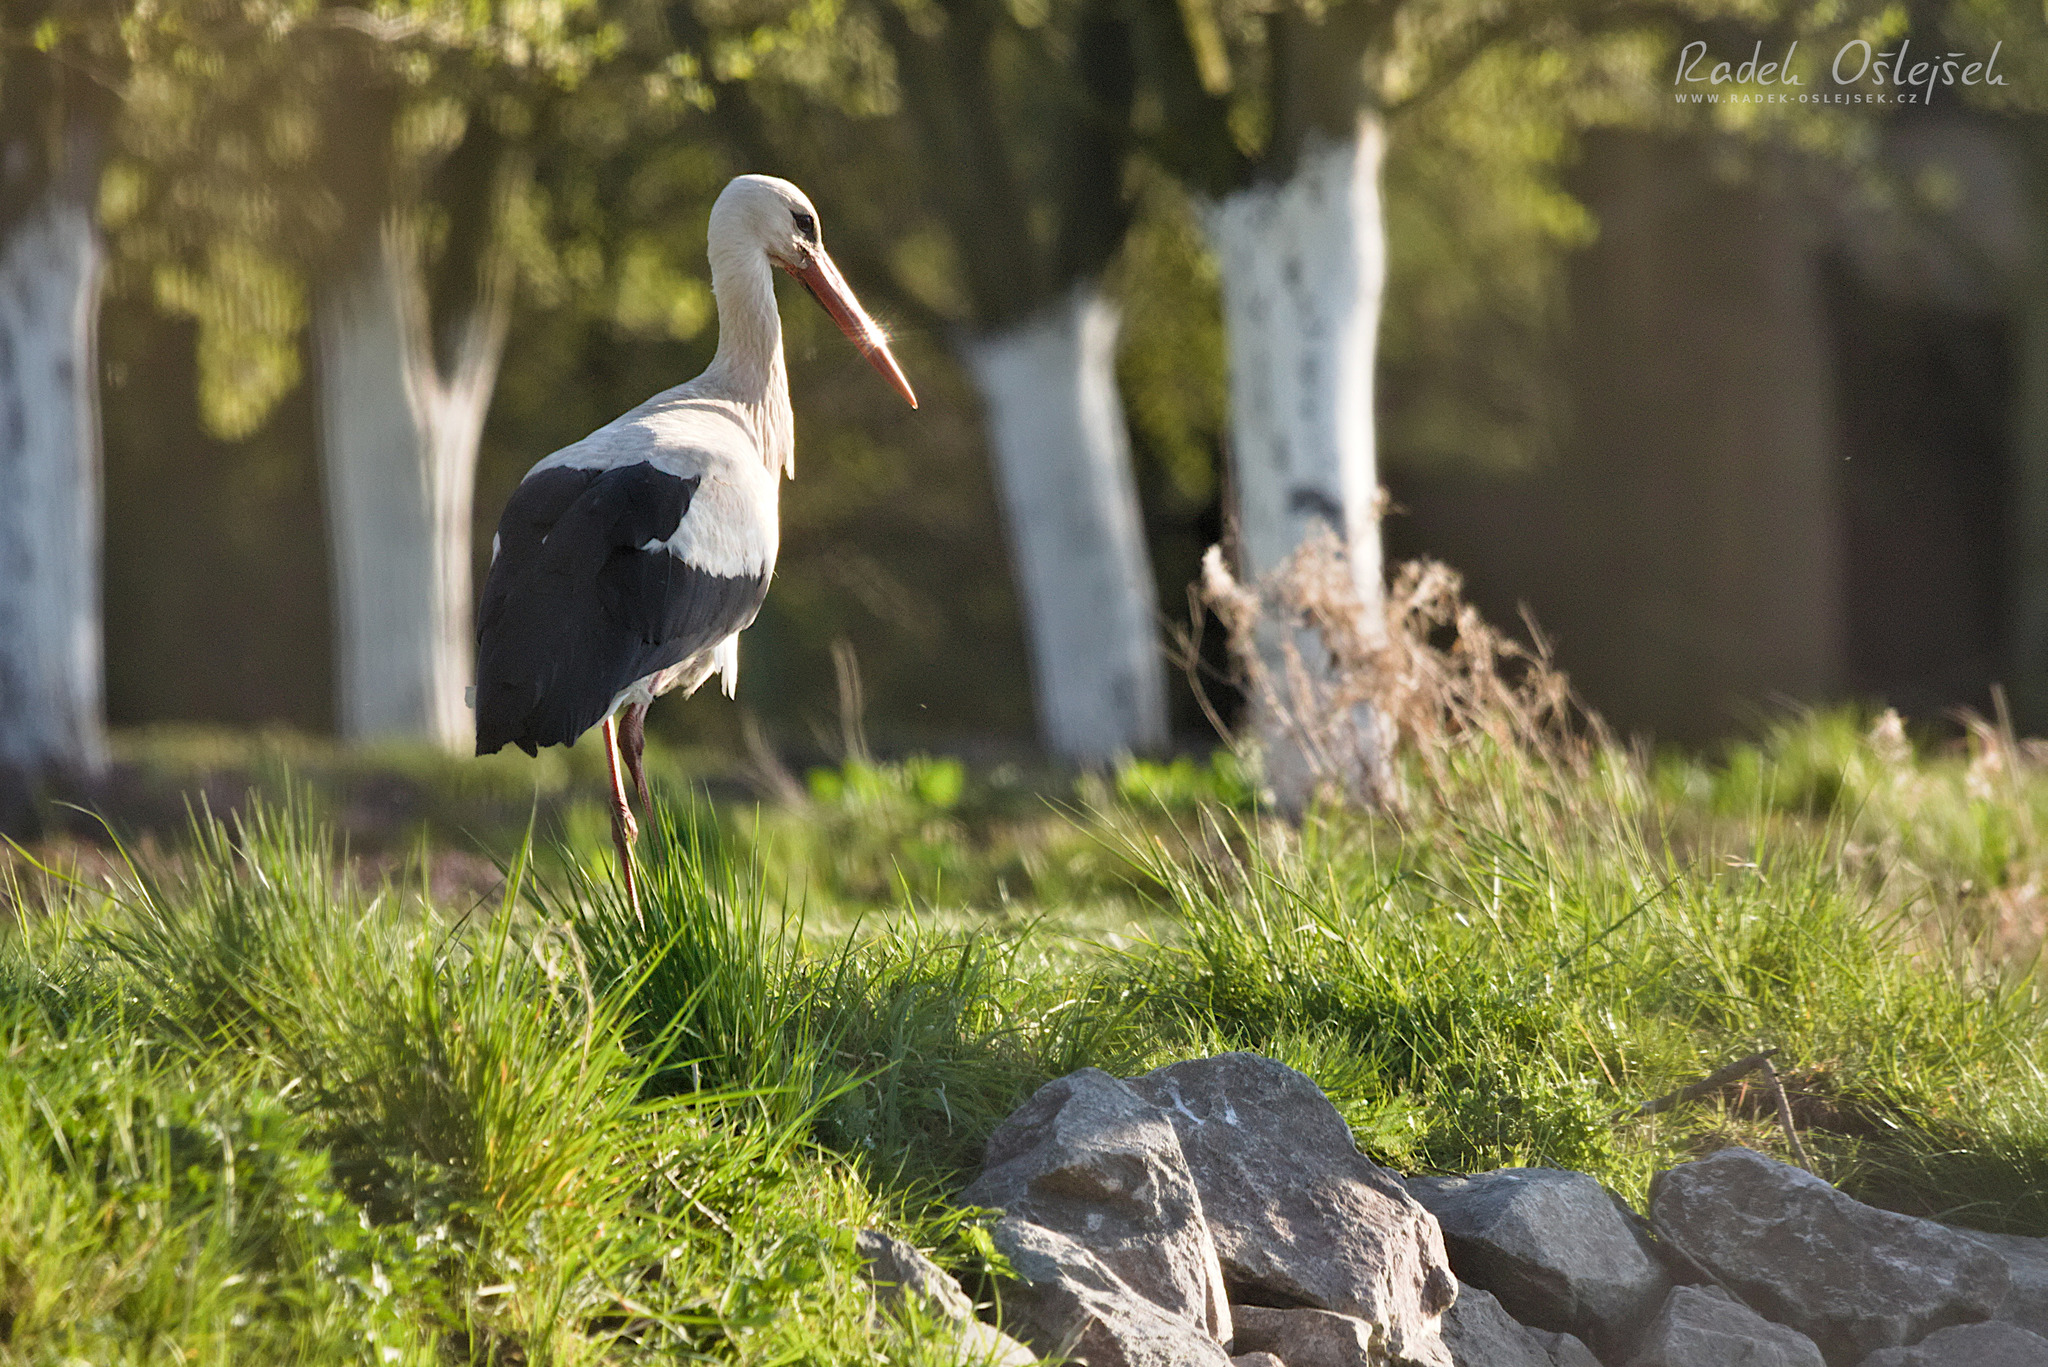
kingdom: Animalia
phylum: Chordata
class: Aves
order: Ciconiiformes
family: Ciconiidae
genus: Ciconia
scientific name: Ciconia ciconia
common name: White stork
